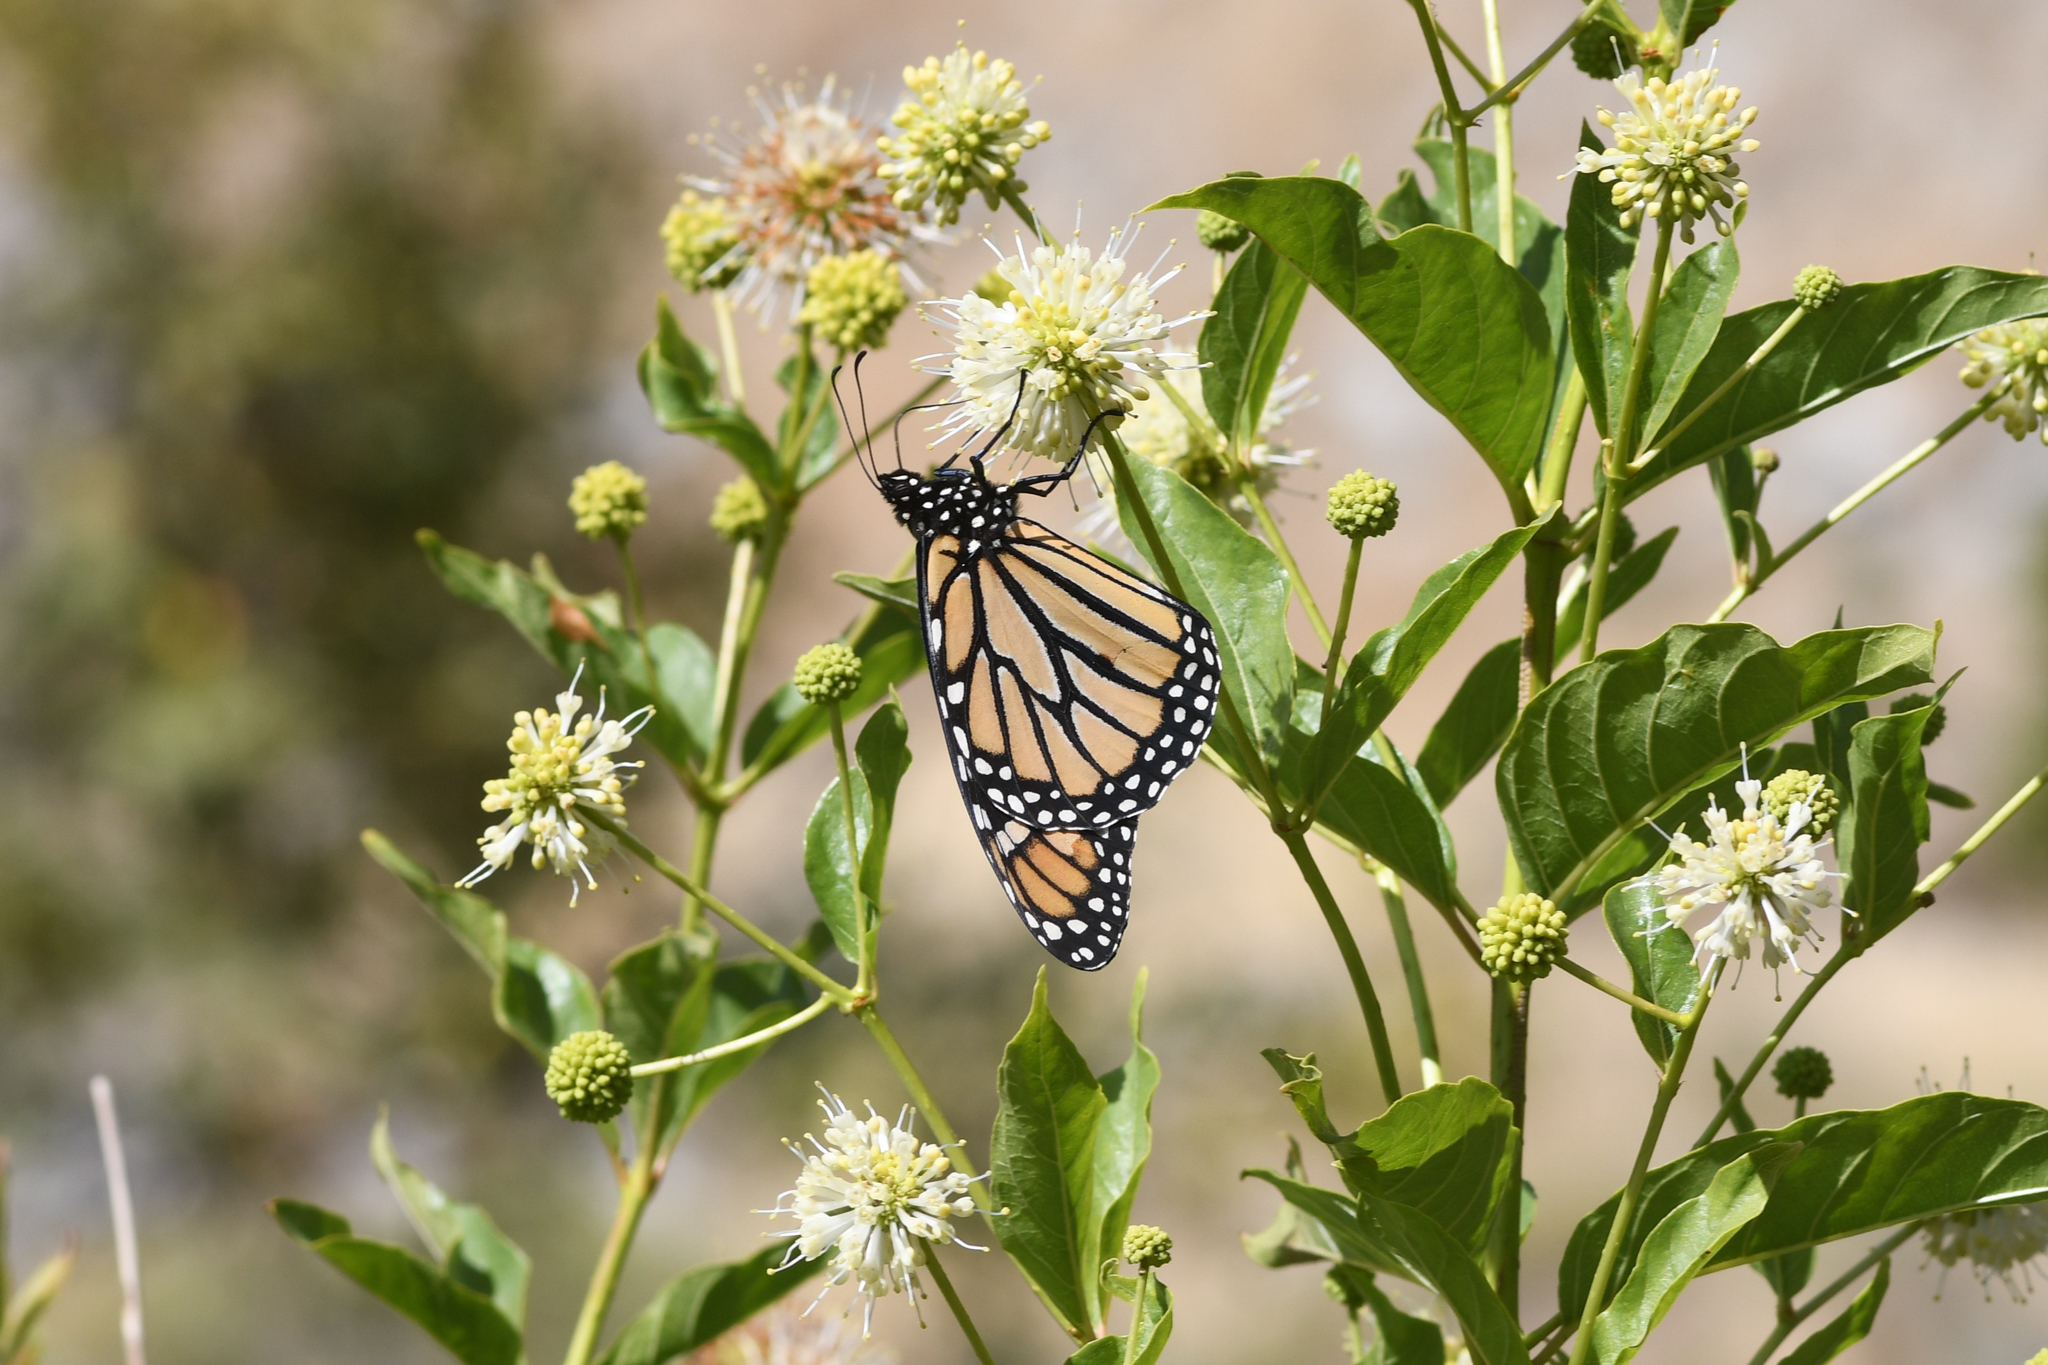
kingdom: Animalia
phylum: Arthropoda
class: Insecta
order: Lepidoptera
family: Nymphalidae
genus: Danaus
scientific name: Danaus plexippus
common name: Monarch
